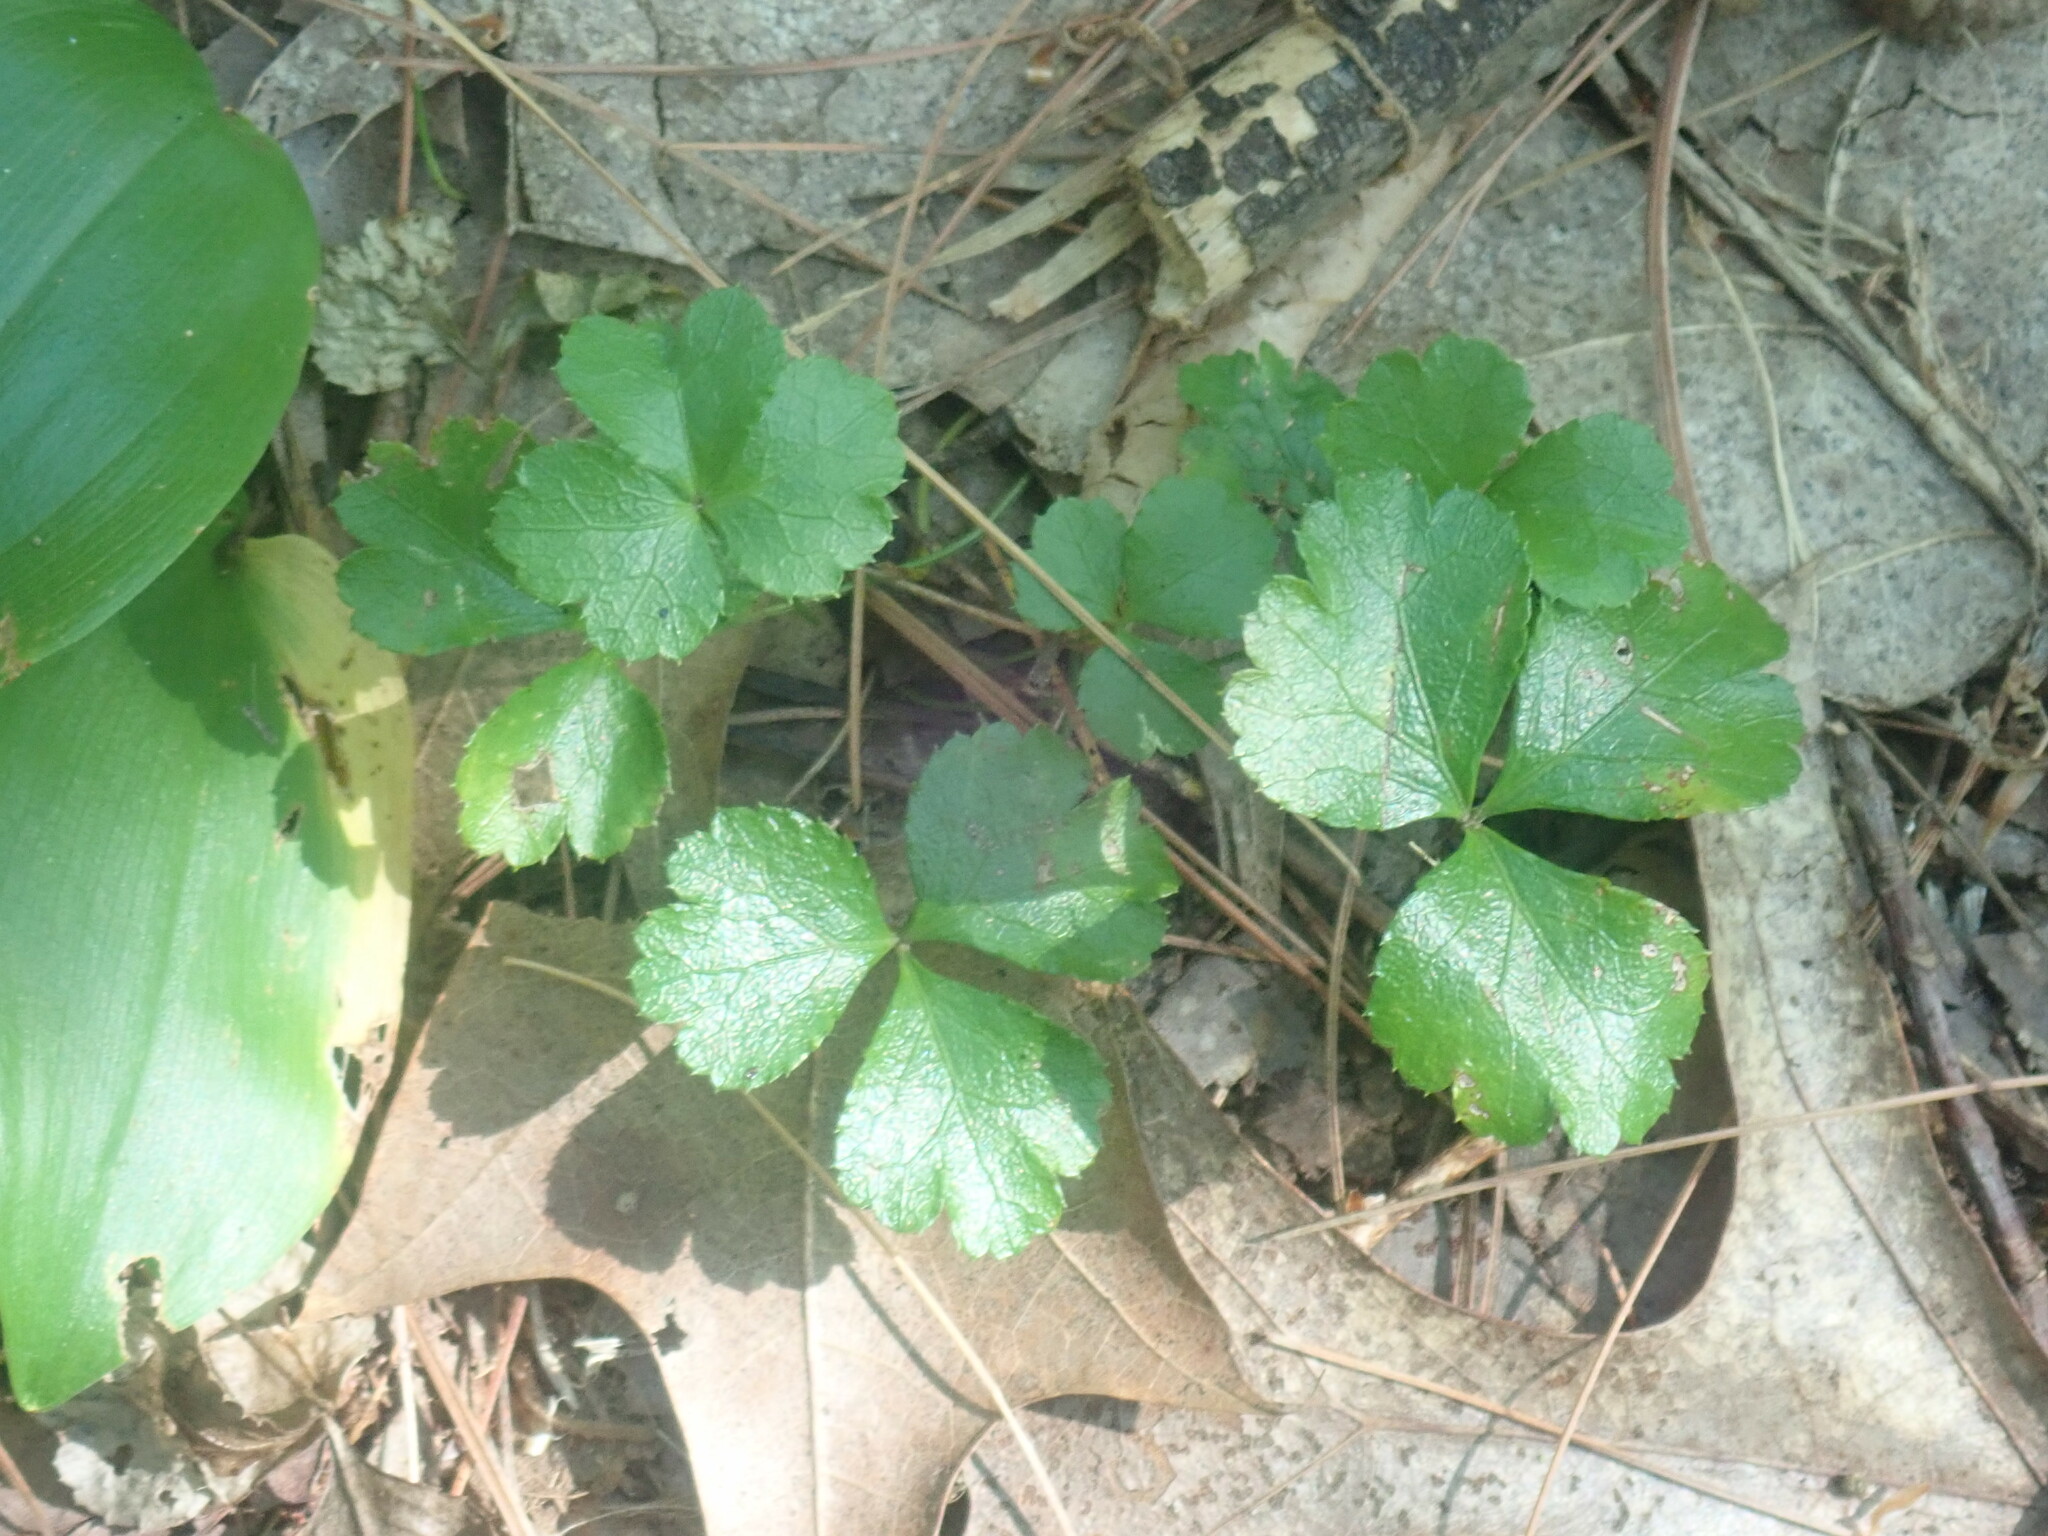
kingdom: Plantae
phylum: Tracheophyta
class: Magnoliopsida
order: Ranunculales
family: Ranunculaceae
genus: Coptis
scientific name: Coptis trifolia
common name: Canker-root
